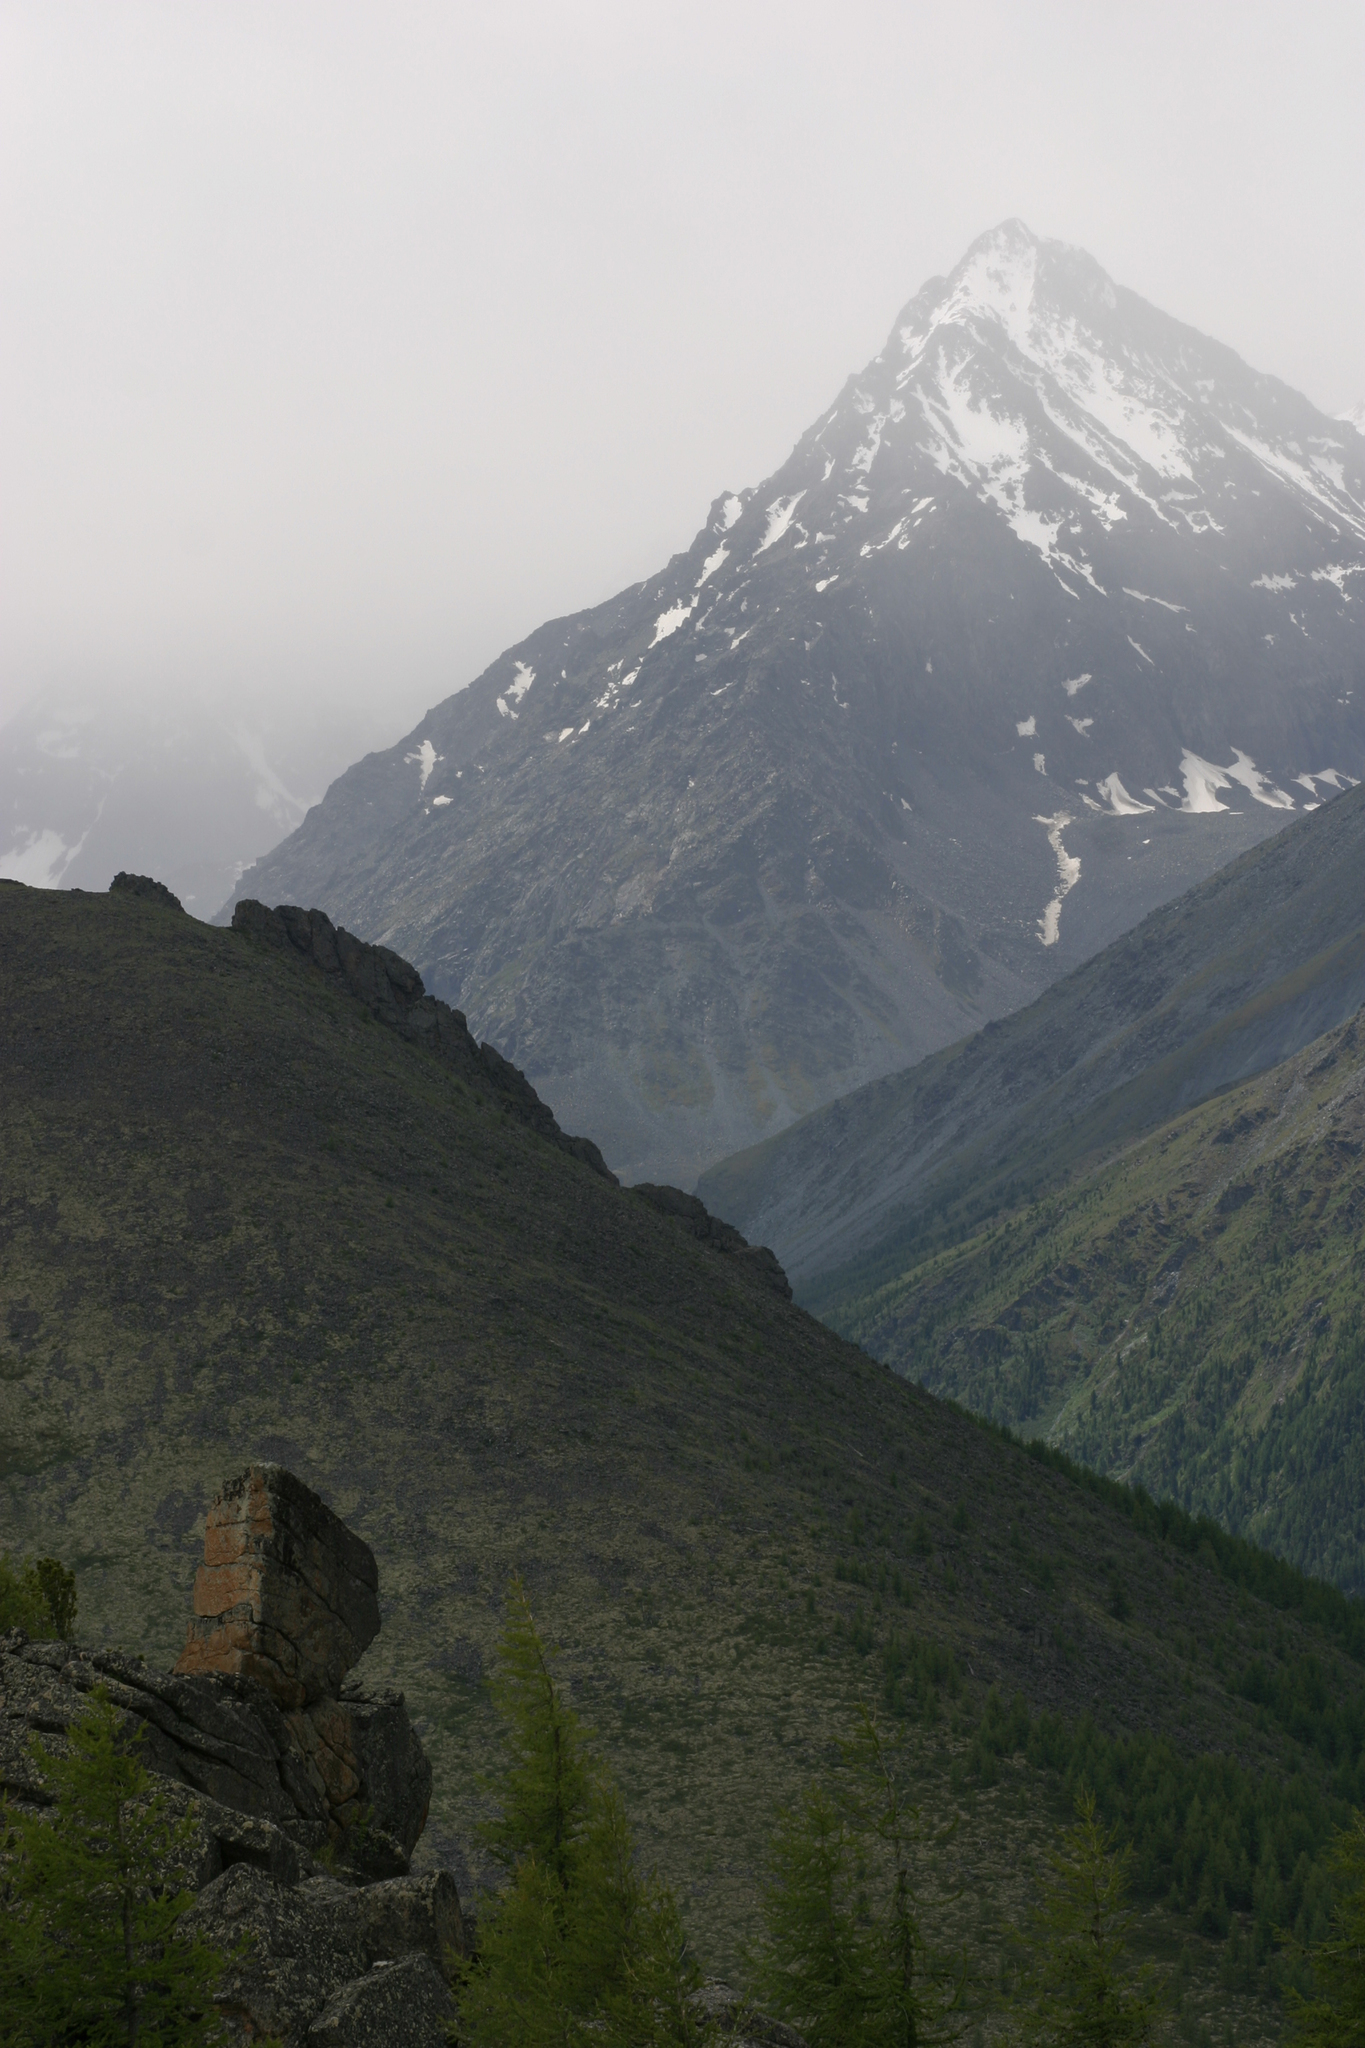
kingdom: Plantae
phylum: Tracheophyta
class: Pinopsida
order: Pinales
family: Pinaceae
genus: Larix
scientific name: Larix sibirica
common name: Siberian larch
